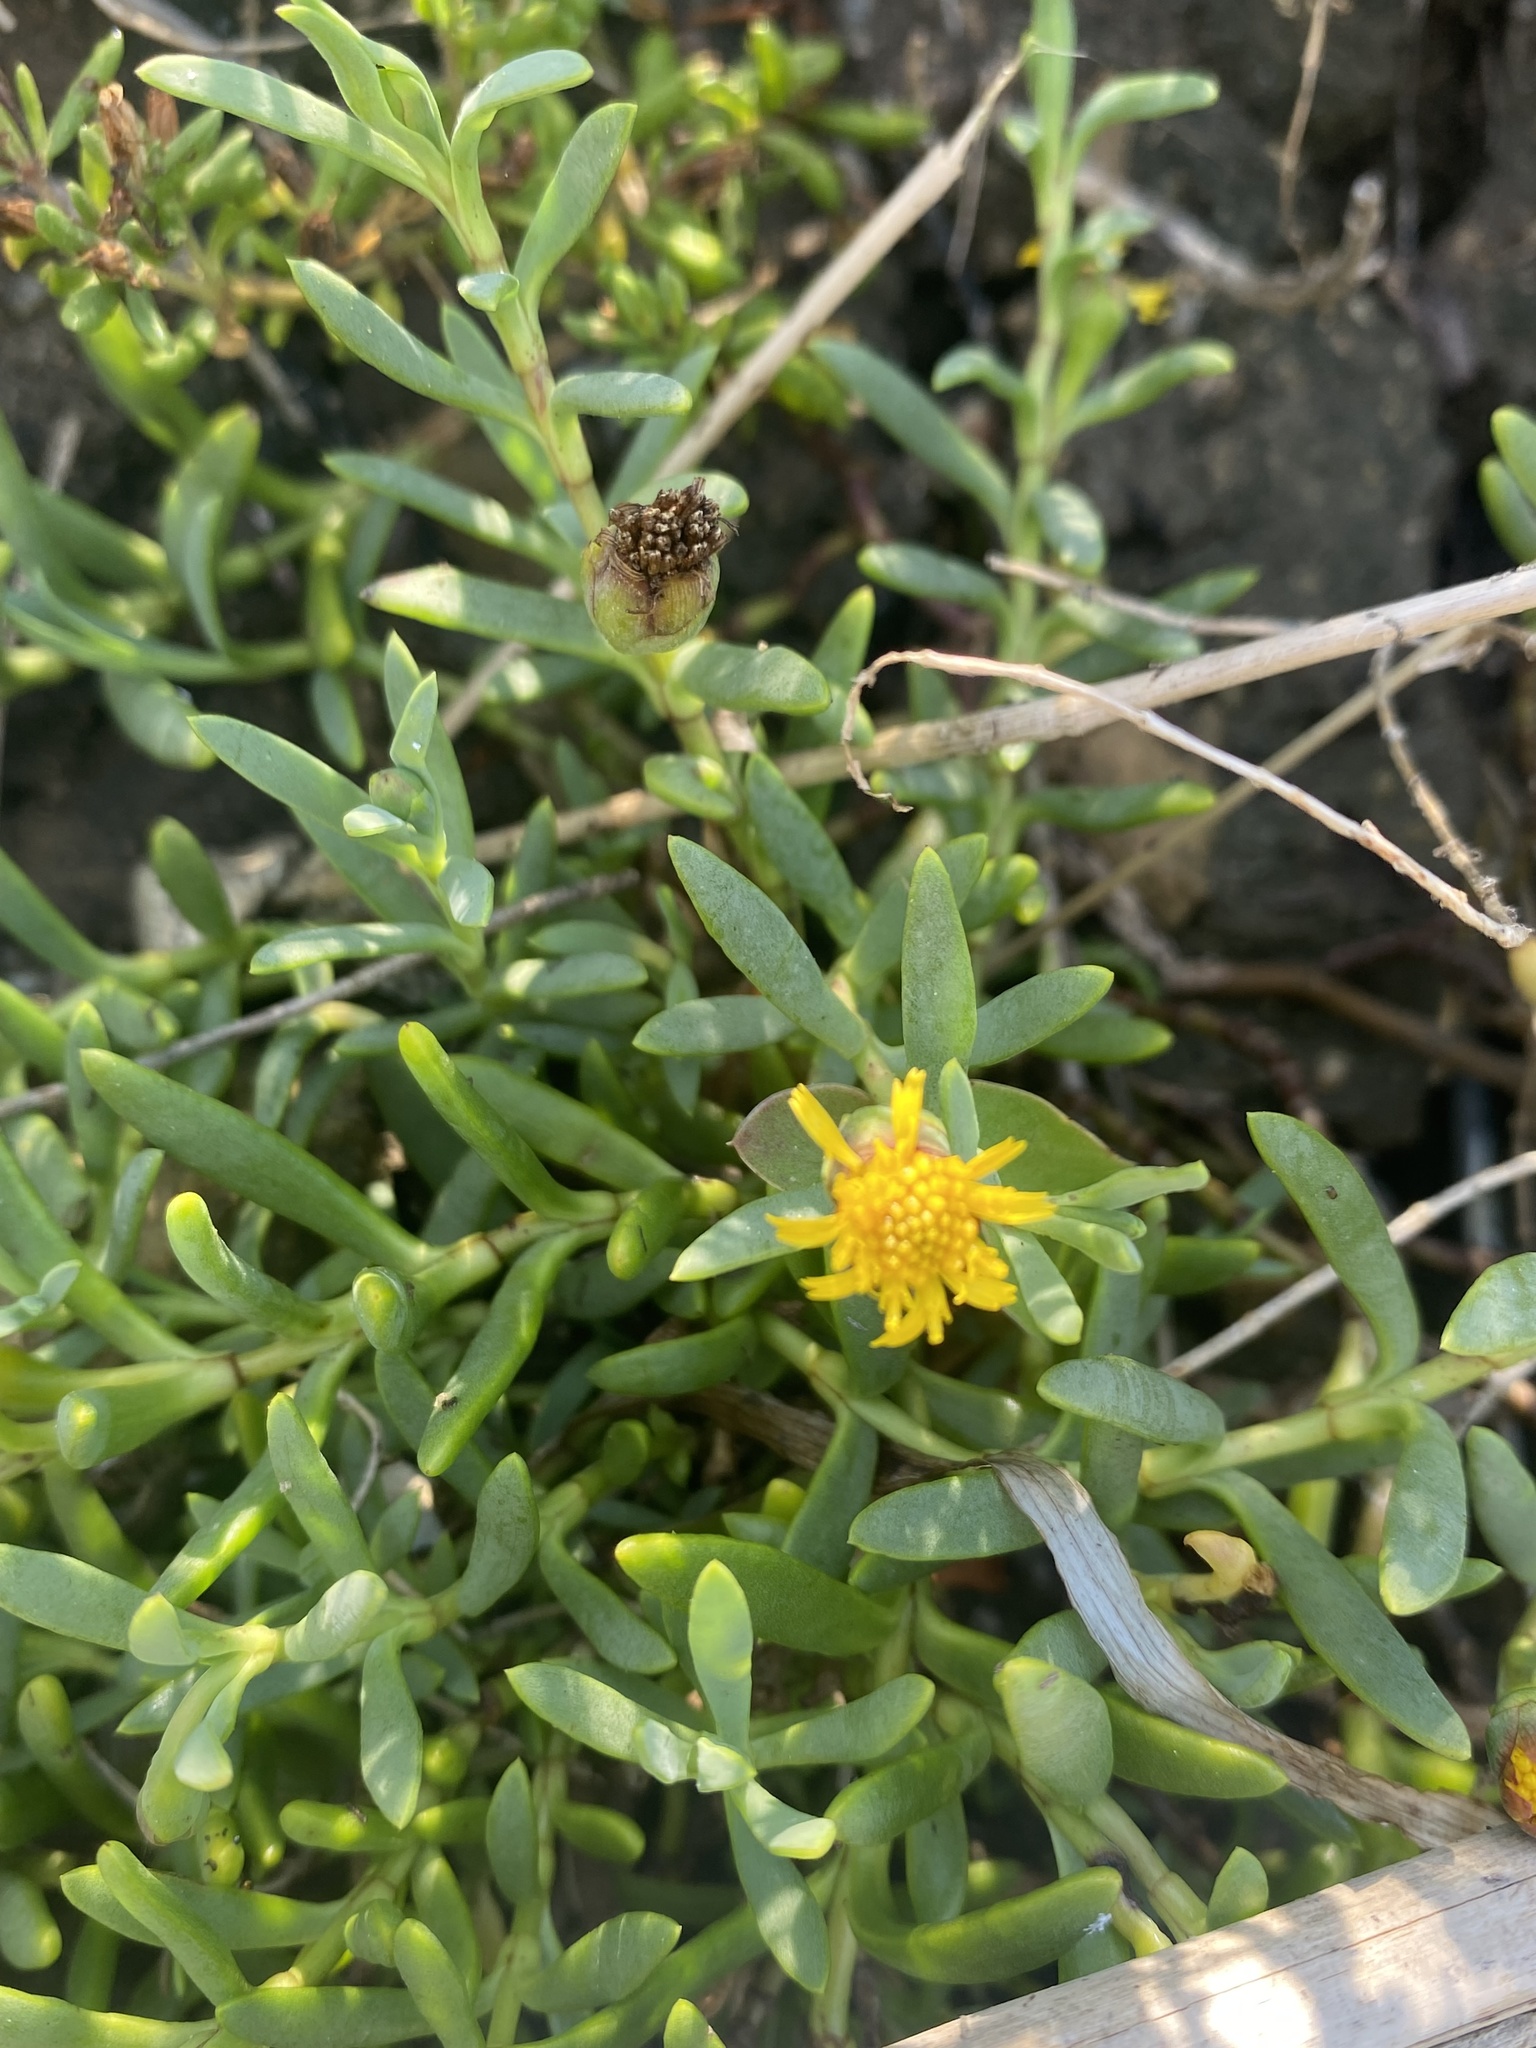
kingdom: Plantae
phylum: Tracheophyta
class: Magnoliopsida
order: Asterales
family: Asteraceae
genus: Jaumea
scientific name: Jaumea carnosa
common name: Fleshy jaumea
